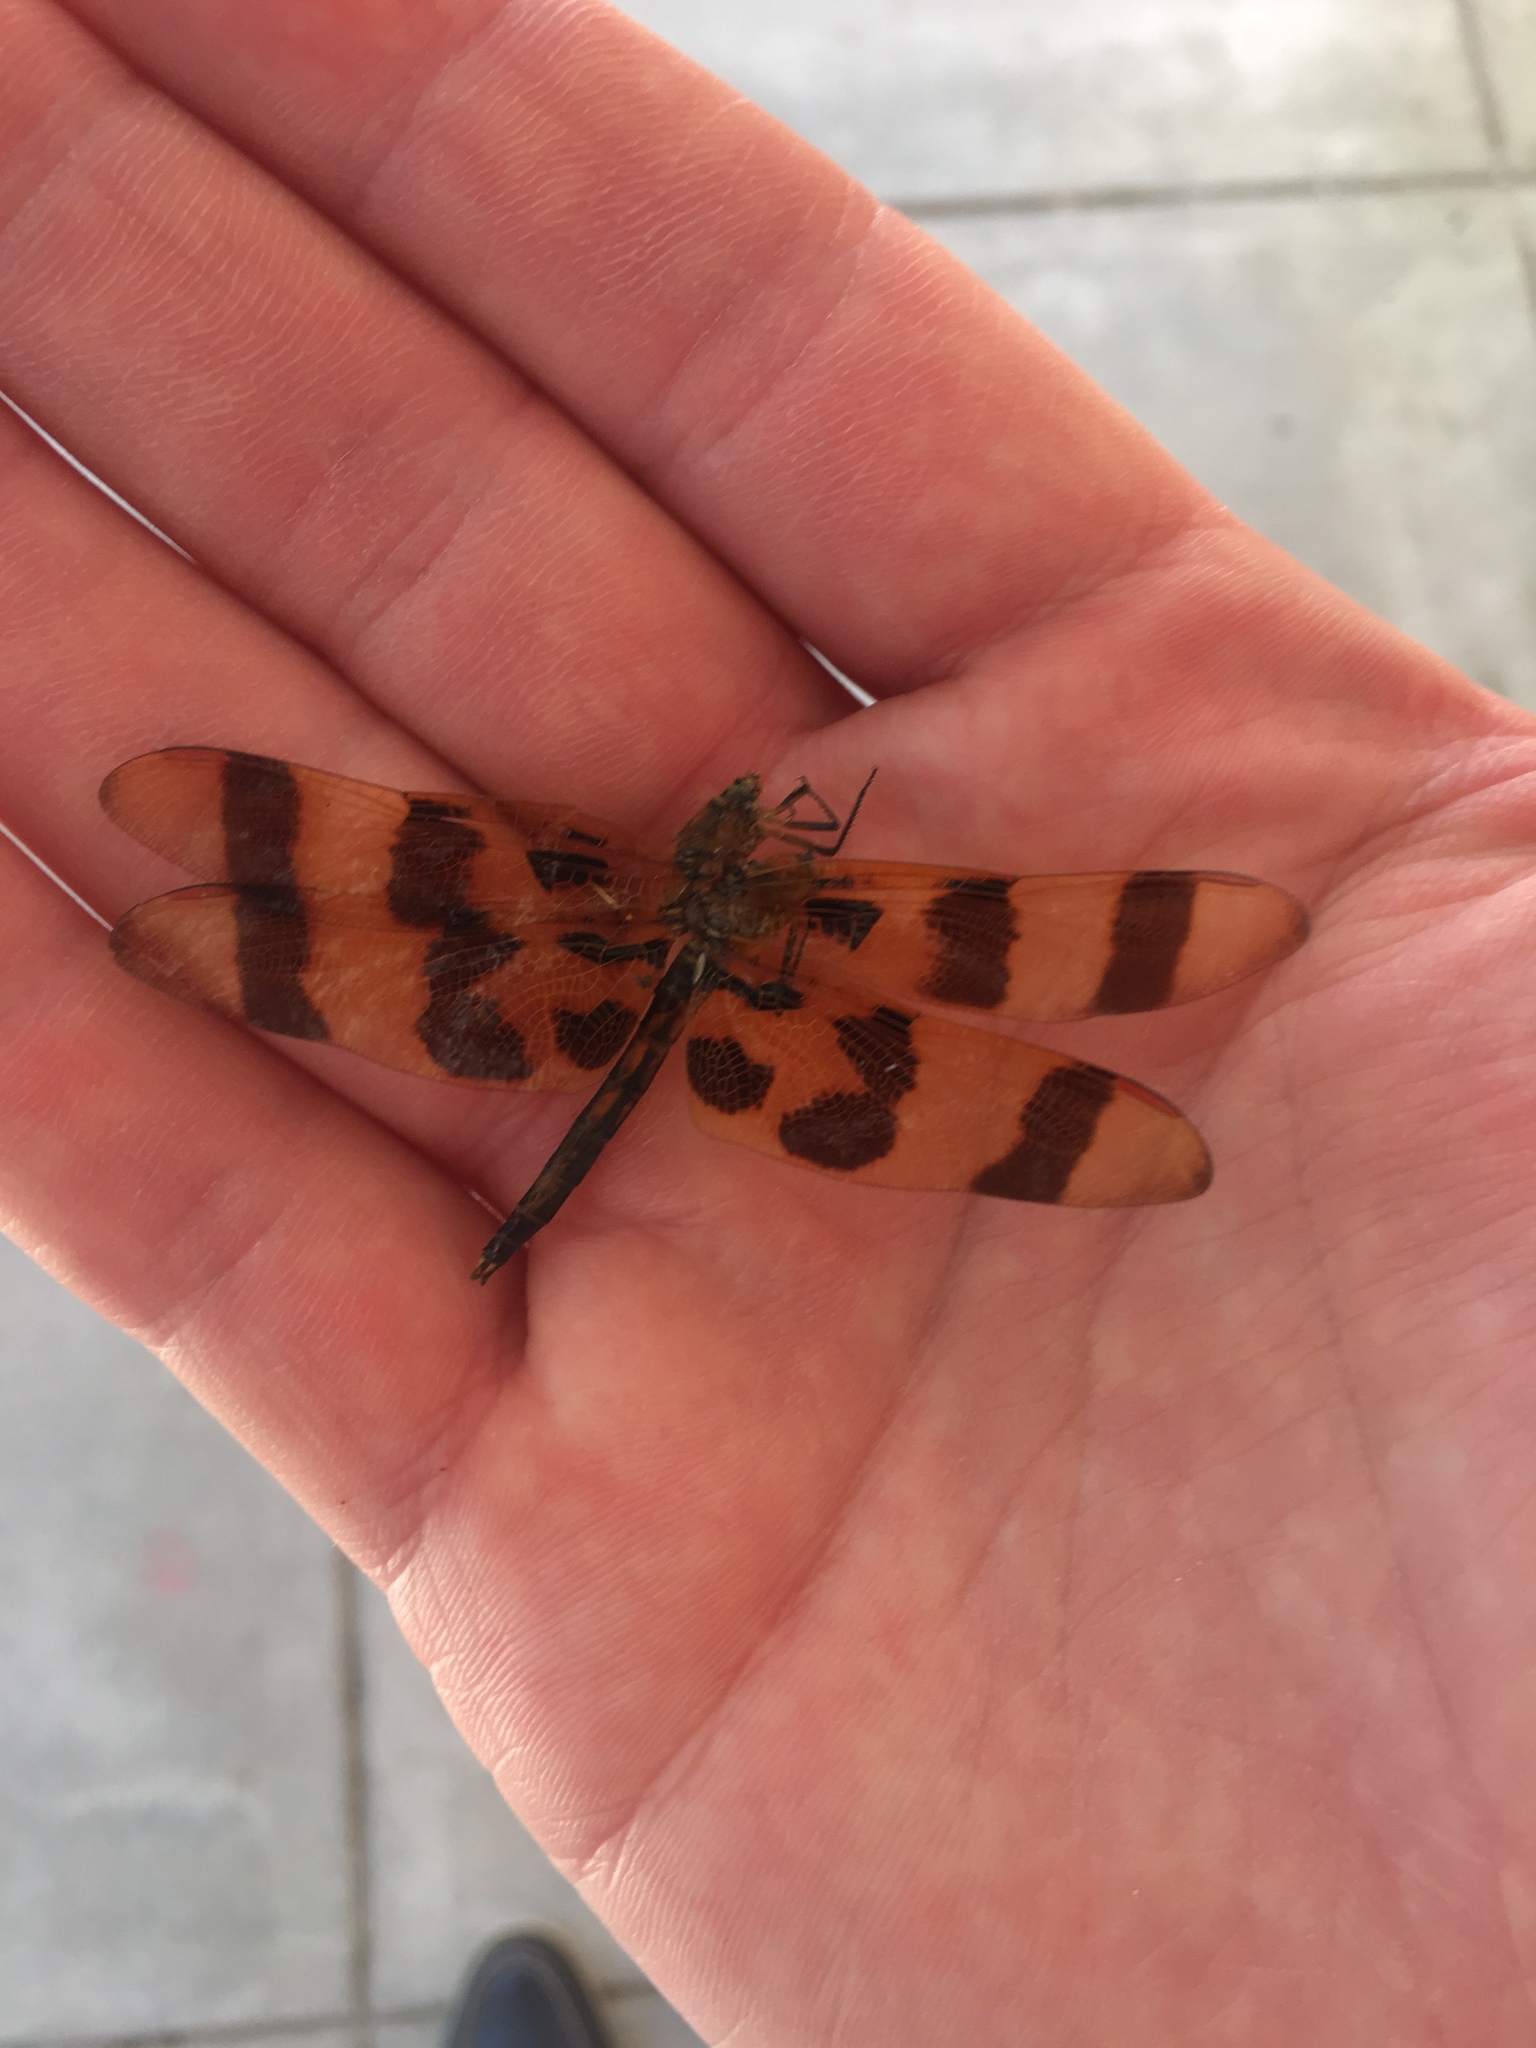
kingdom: Animalia
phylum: Arthropoda
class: Insecta
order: Odonata
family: Libellulidae
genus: Celithemis
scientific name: Celithemis eponina
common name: Halloween pennant
